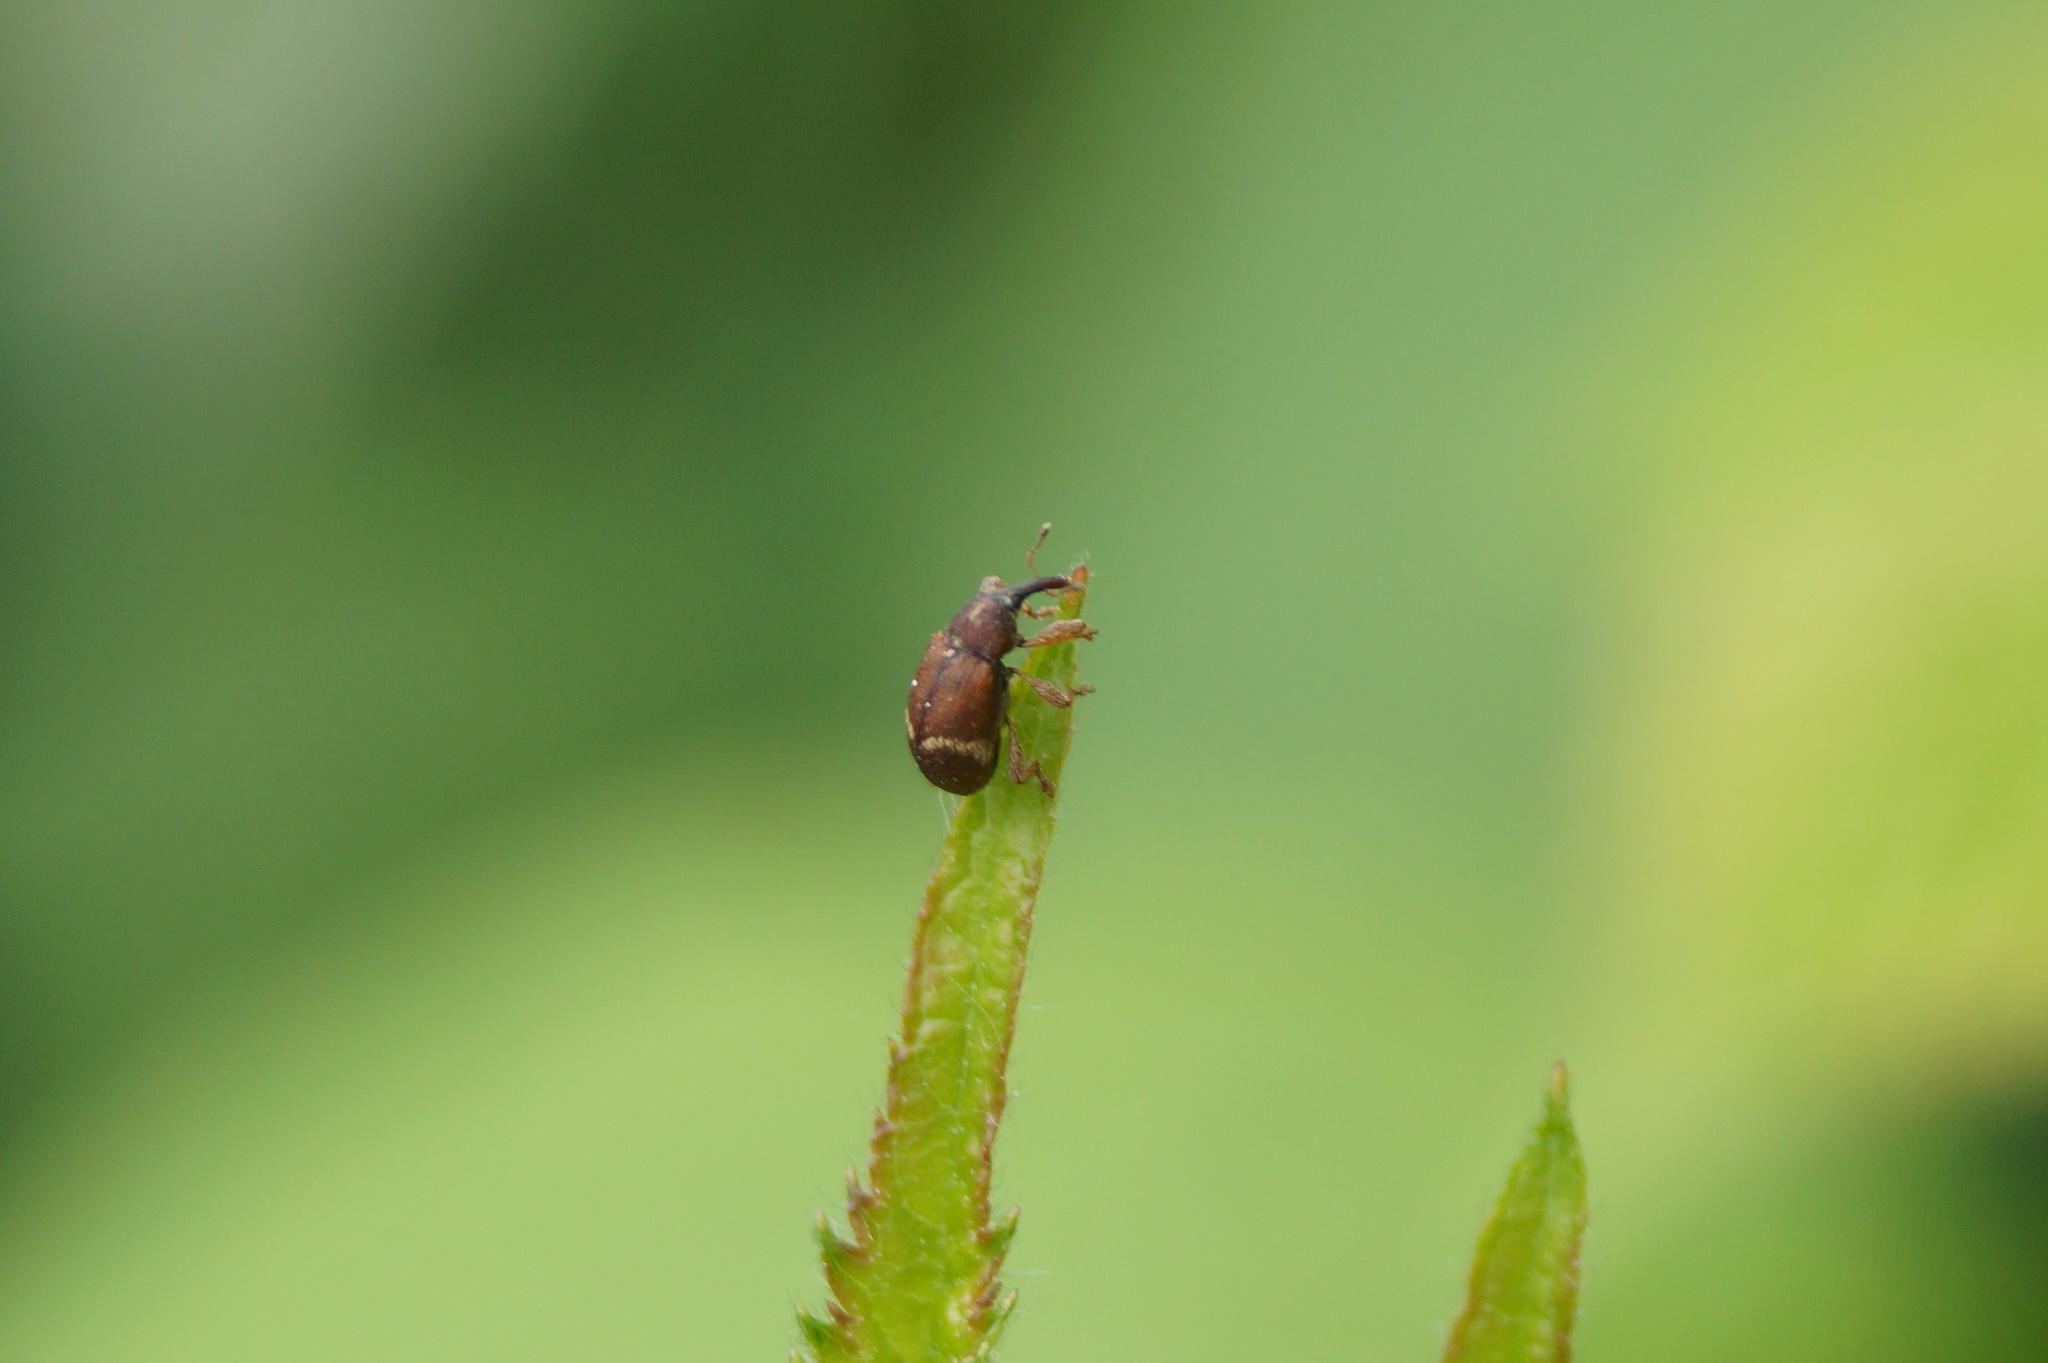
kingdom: Animalia
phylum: Arthropoda
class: Insecta
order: Coleoptera
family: Curculionidae
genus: Bradybatus
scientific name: Bradybatus fallax
